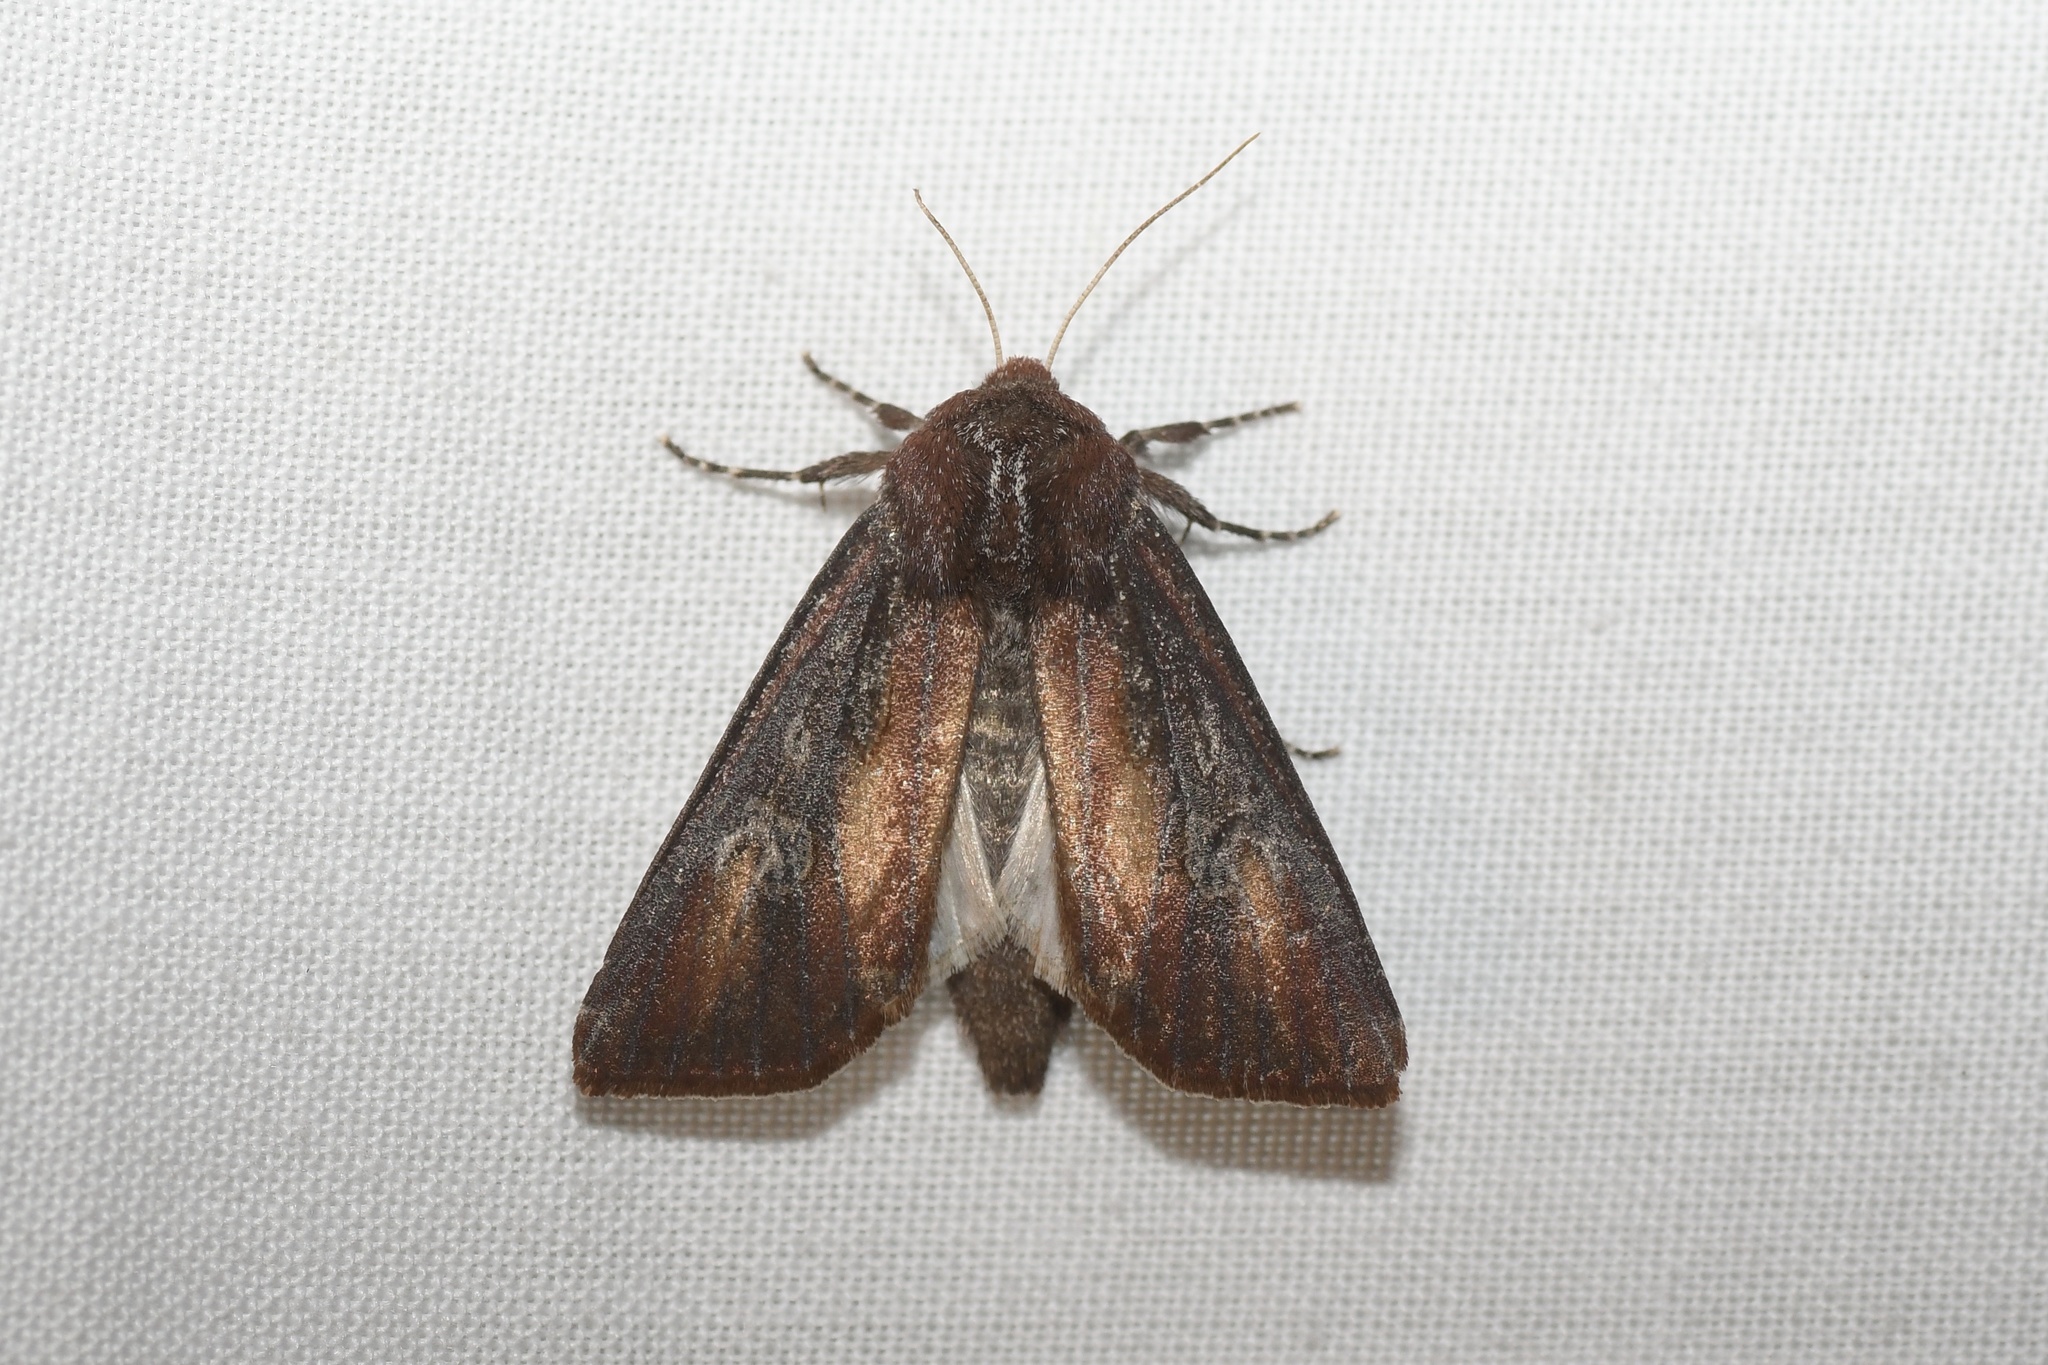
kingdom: Animalia
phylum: Arthropoda
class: Insecta
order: Lepidoptera
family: Noctuidae
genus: Melanchra
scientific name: Melanchra picta
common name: Zebra caterpillar
